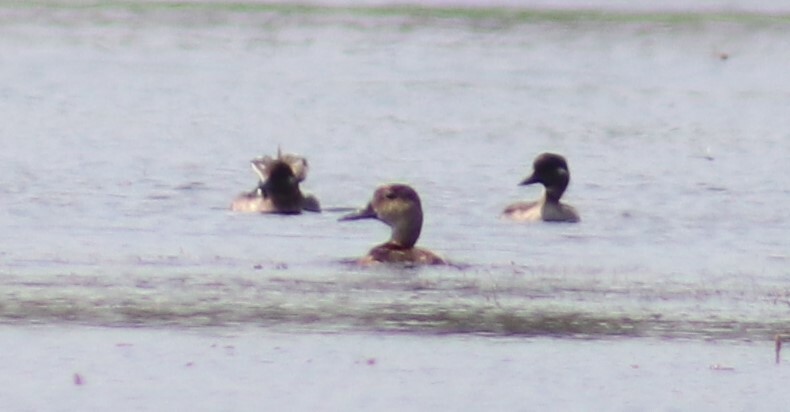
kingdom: Animalia
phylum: Chordata
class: Aves
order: Anseriformes
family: Anatidae
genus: Aythya
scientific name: Aythya americana
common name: Redhead
